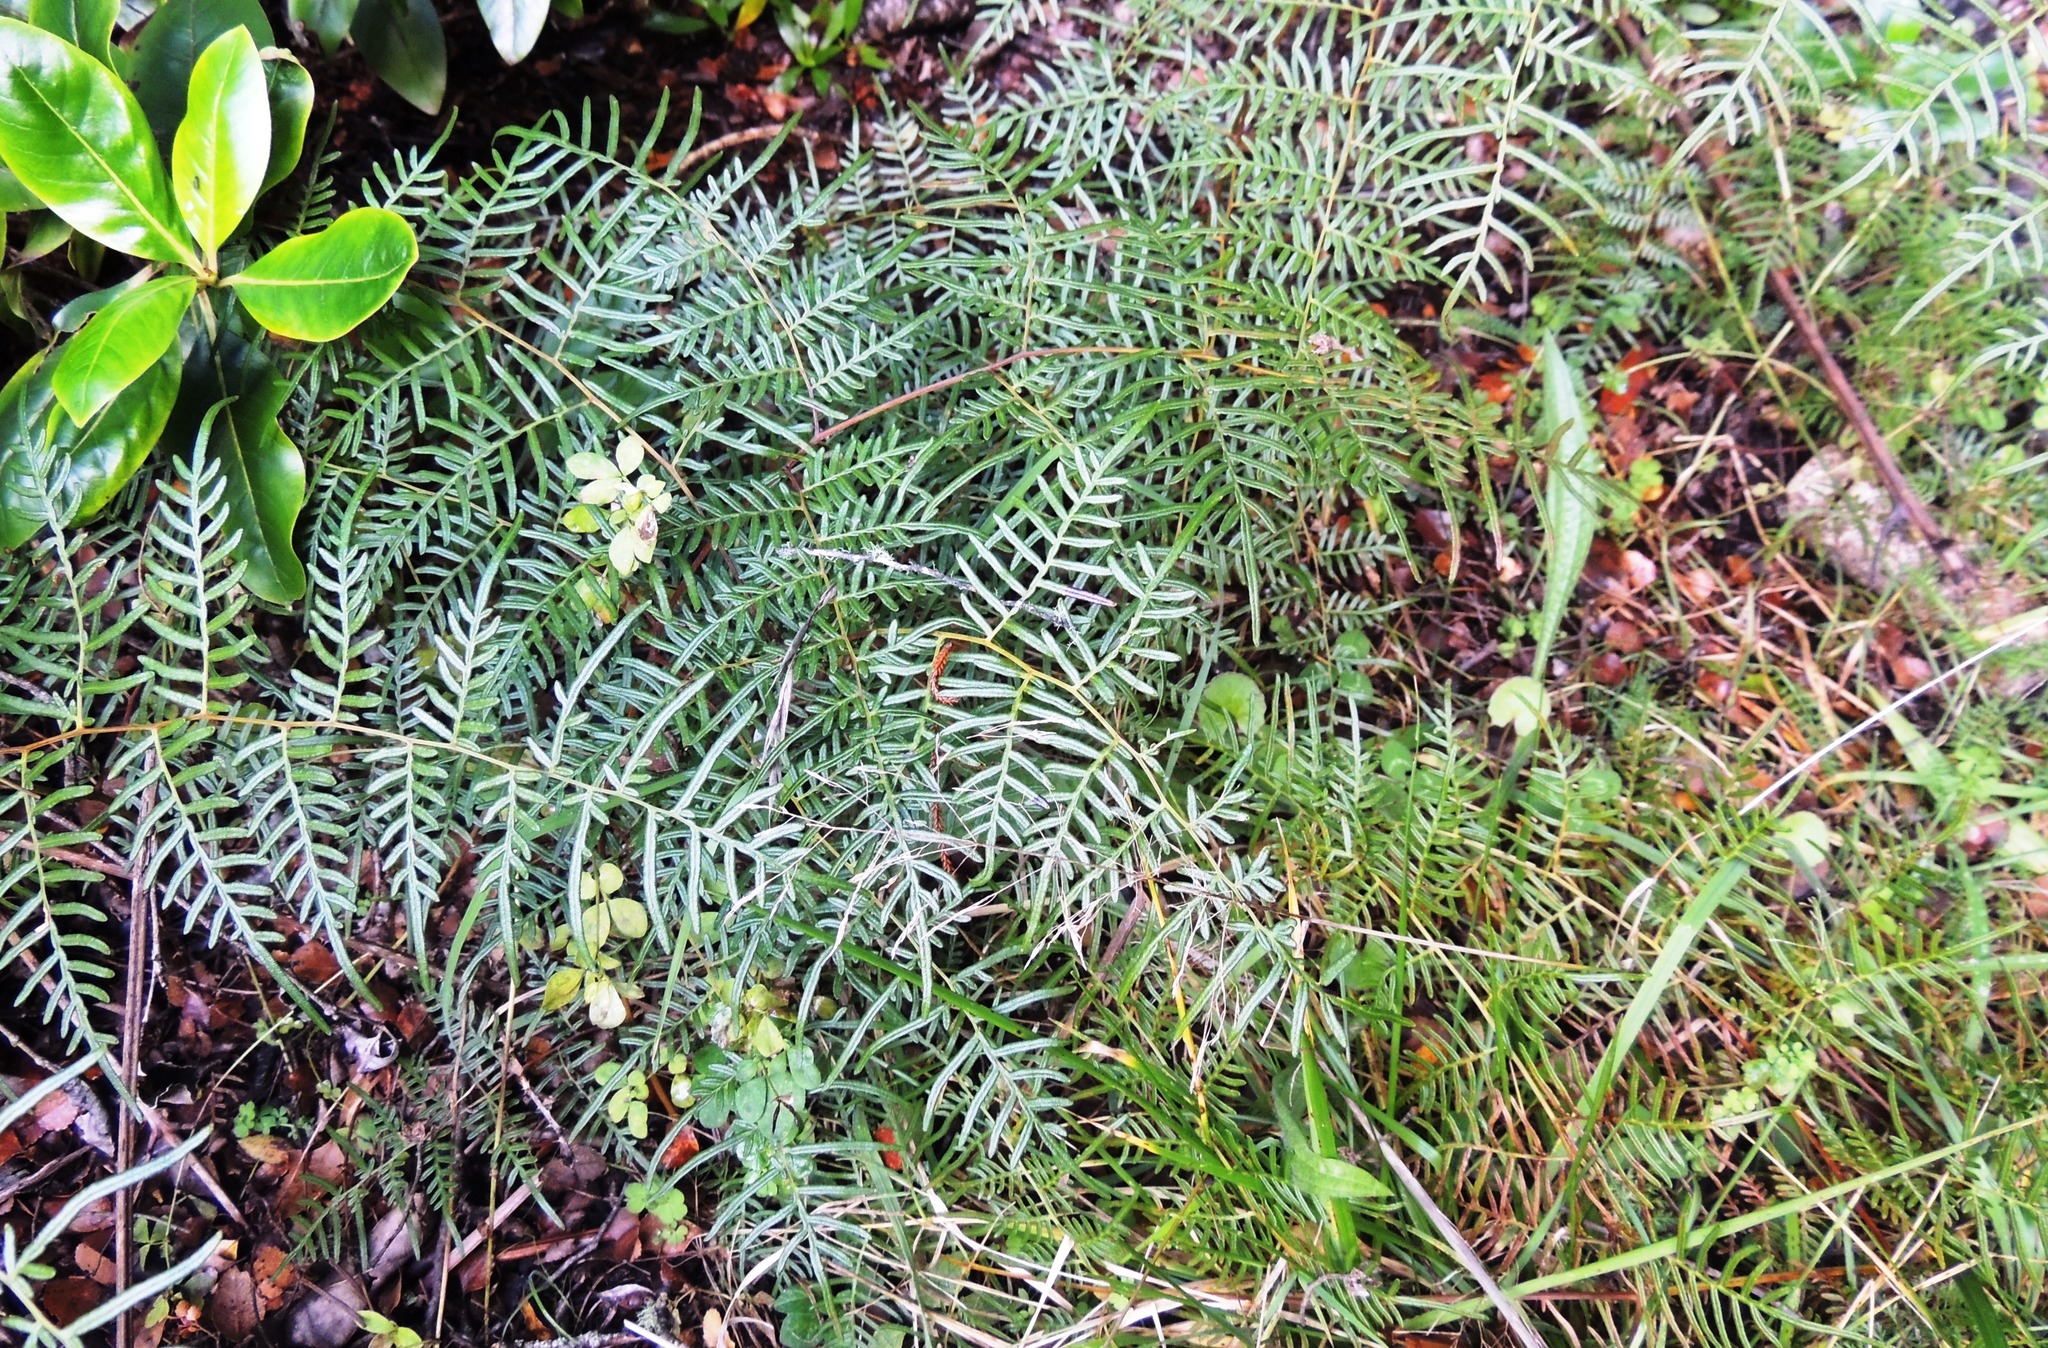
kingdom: Plantae
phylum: Tracheophyta
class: Polypodiopsida
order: Polypodiales
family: Dennstaedtiaceae
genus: Pteridium
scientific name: Pteridium esculentum
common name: Bracken fern
